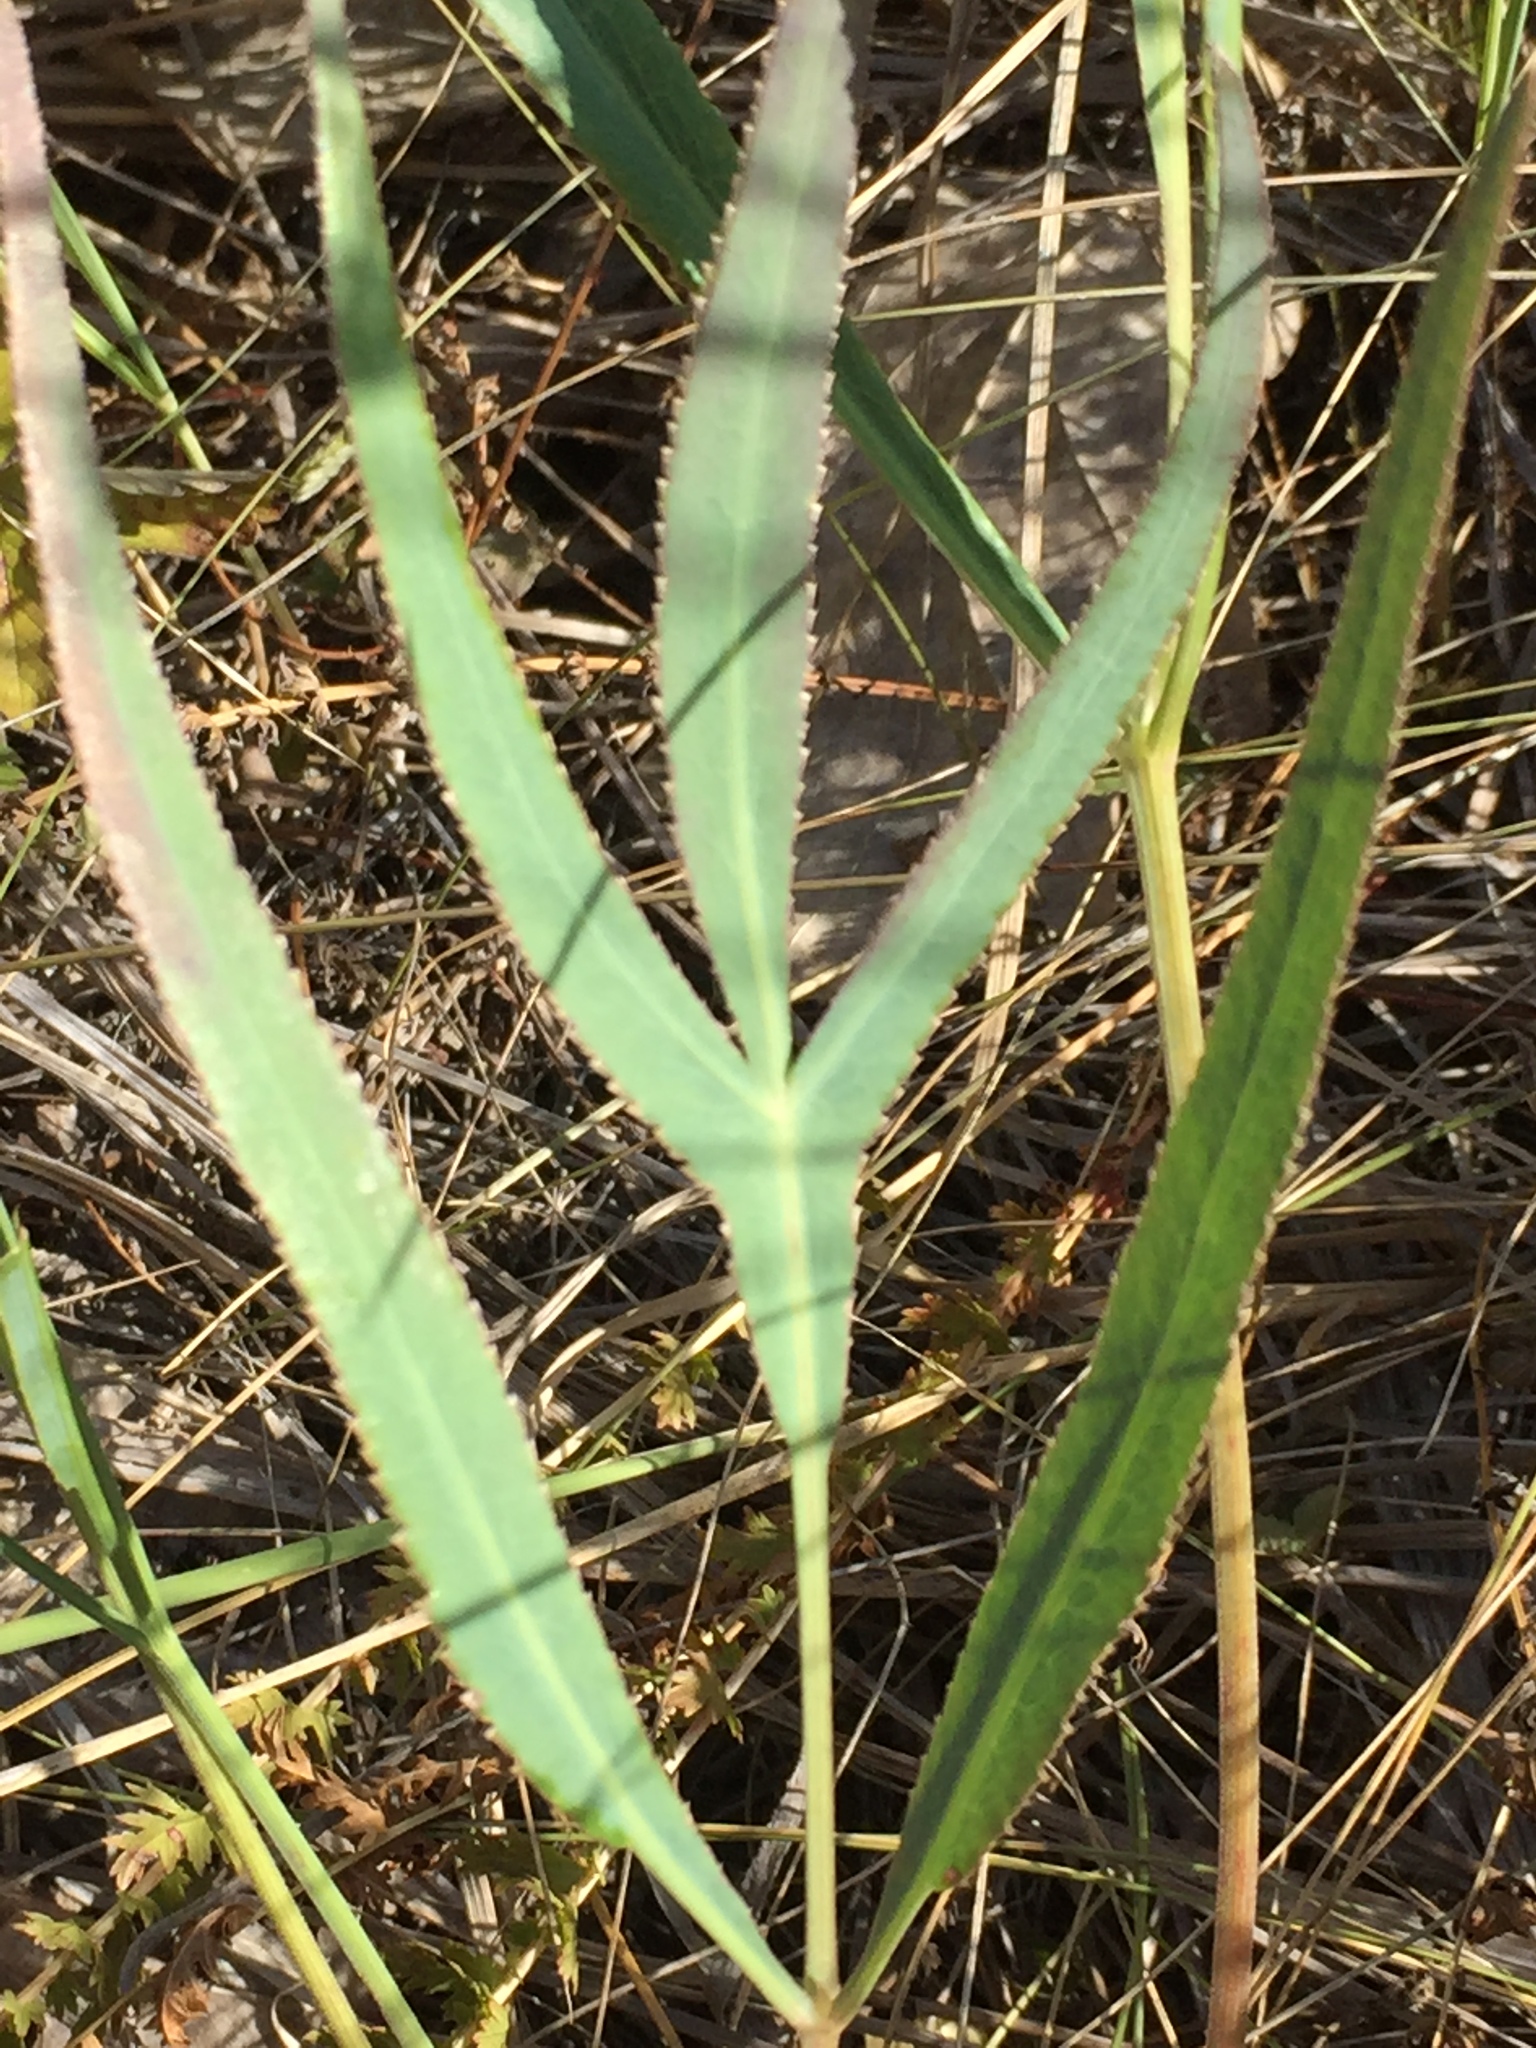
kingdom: Plantae
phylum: Tracheophyta
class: Magnoliopsida
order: Apiales
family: Apiaceae
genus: Falcaria
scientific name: Falcaria vulgaris
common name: Longleaf
